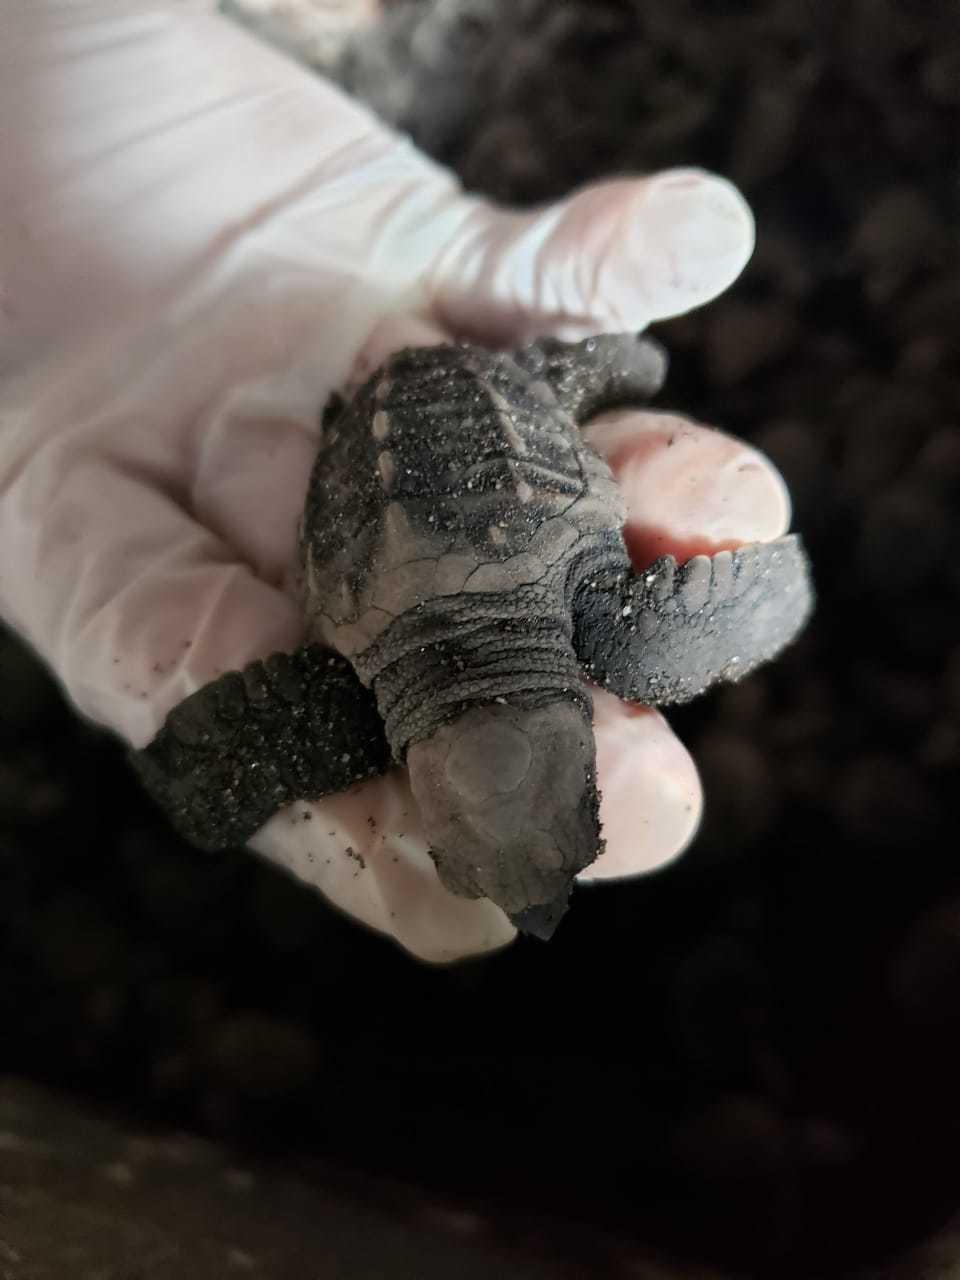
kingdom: Animalia
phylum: Chordata
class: Testudines
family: Cheloniidae
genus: Lepidochelys
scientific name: Lepidochelys olivacea
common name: Olive ridley
